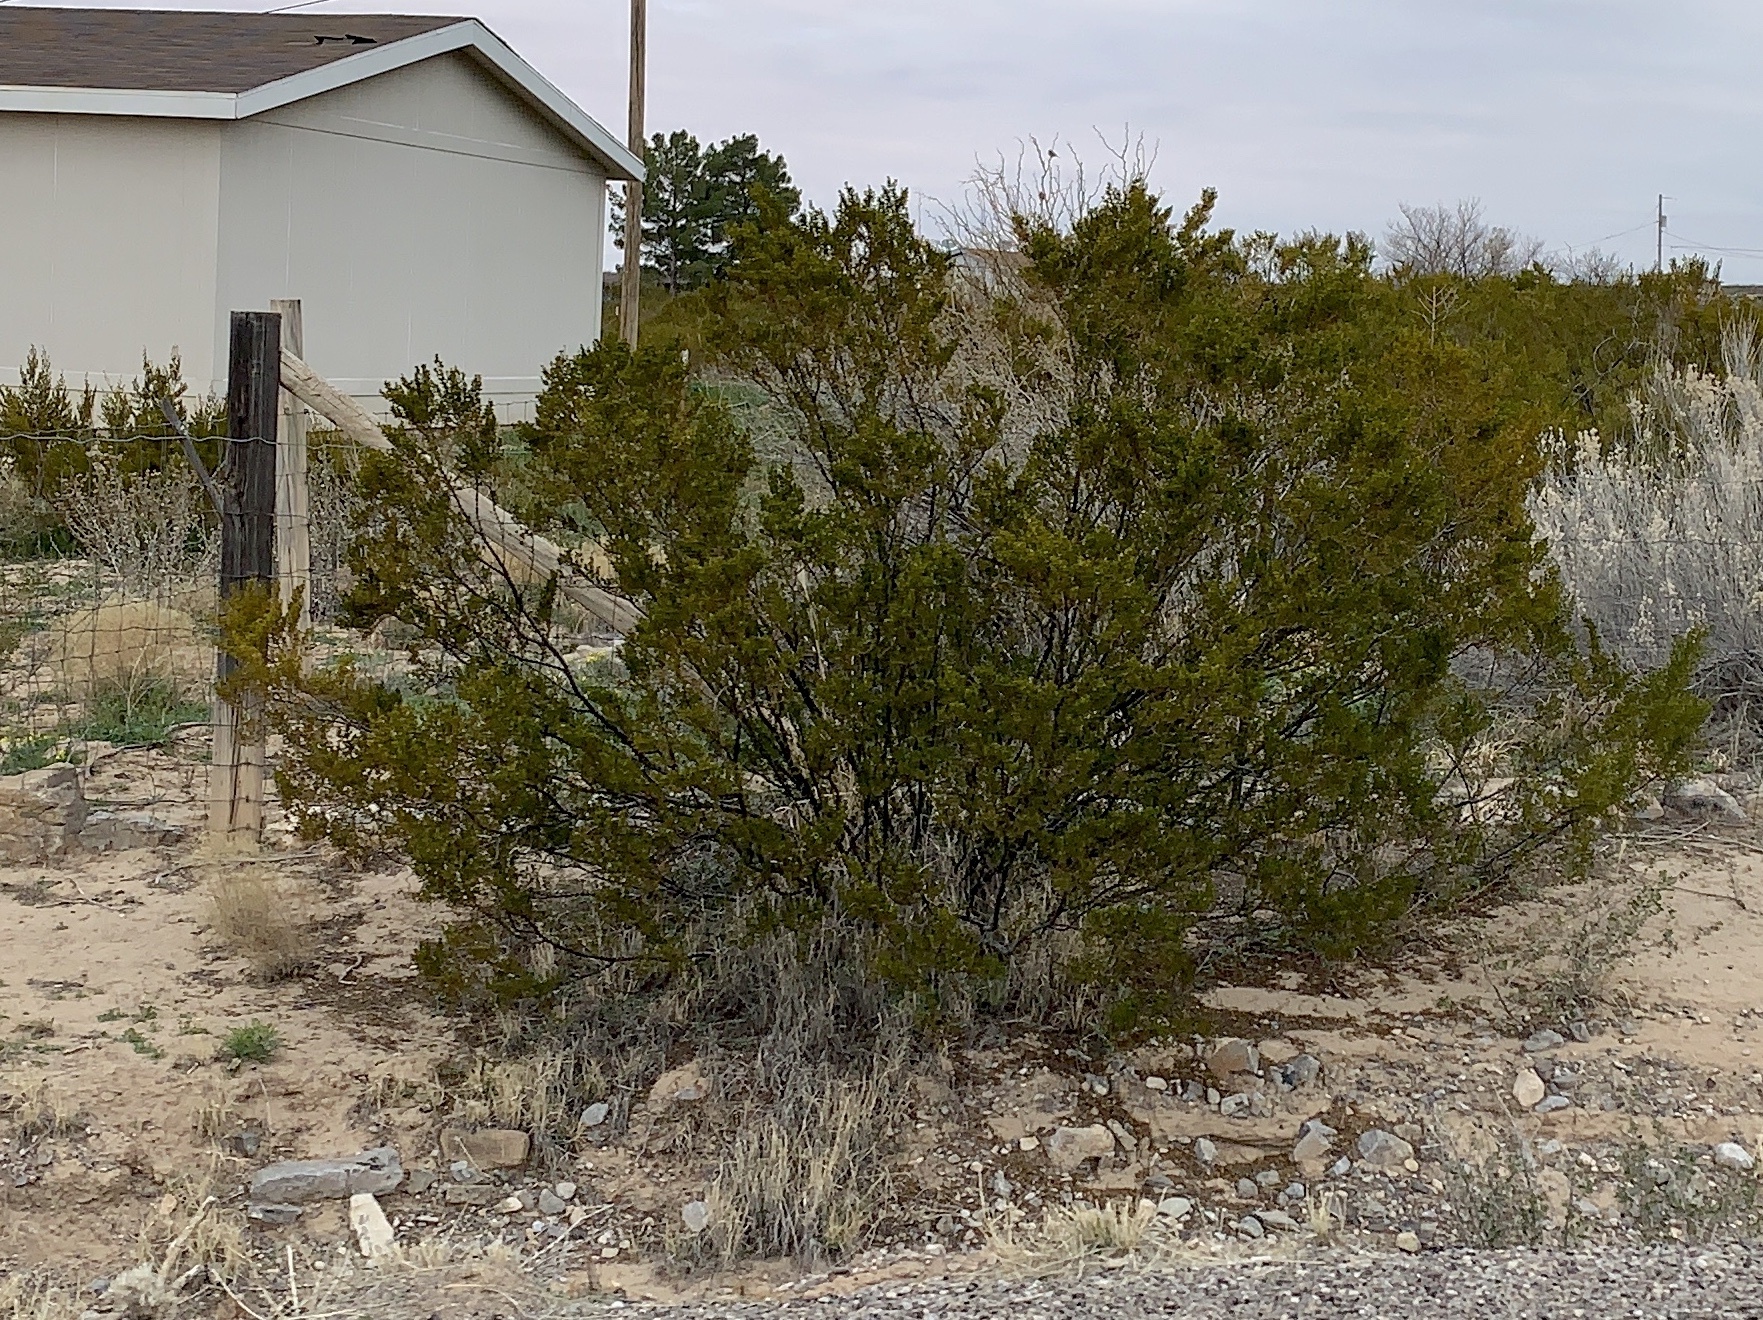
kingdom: Plantae
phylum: Tracheophyta
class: Magnoliopsida
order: Zygophyllales
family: Zygophyllaceae
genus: Larrea
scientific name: Larrea tridentata
